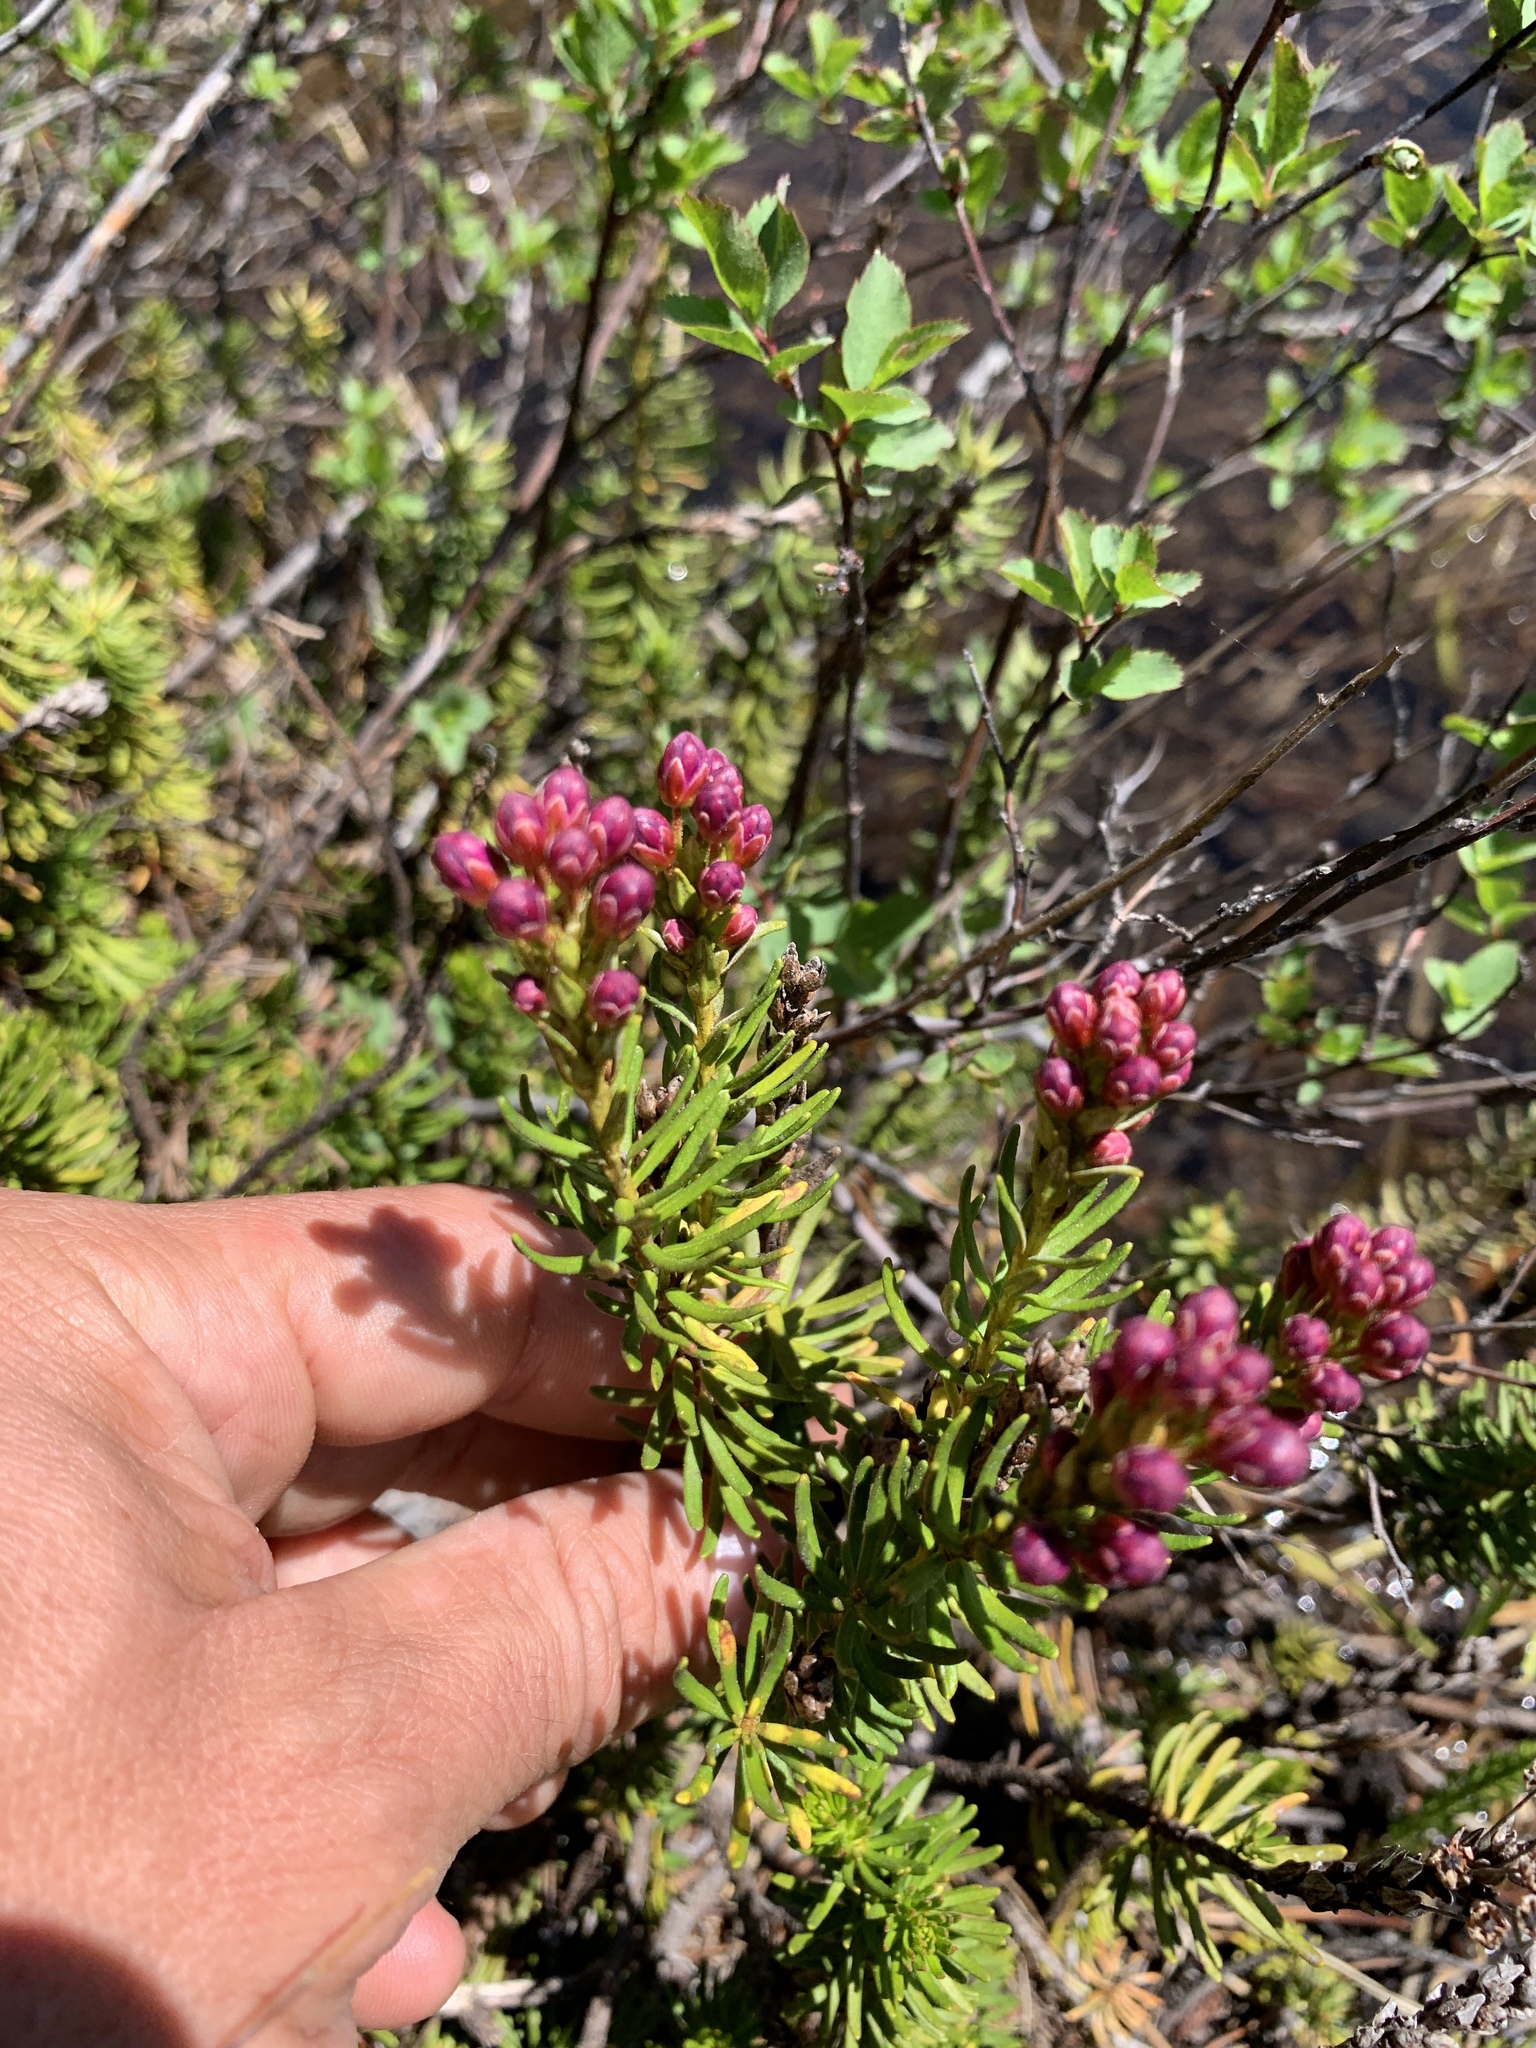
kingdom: Plantae
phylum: Tracheophyta
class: Magnoliopsida
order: Ericales
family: Ericaceae
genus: Phyllodoce
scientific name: Phyllodoce breweri
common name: Brewer's mountain-heather
